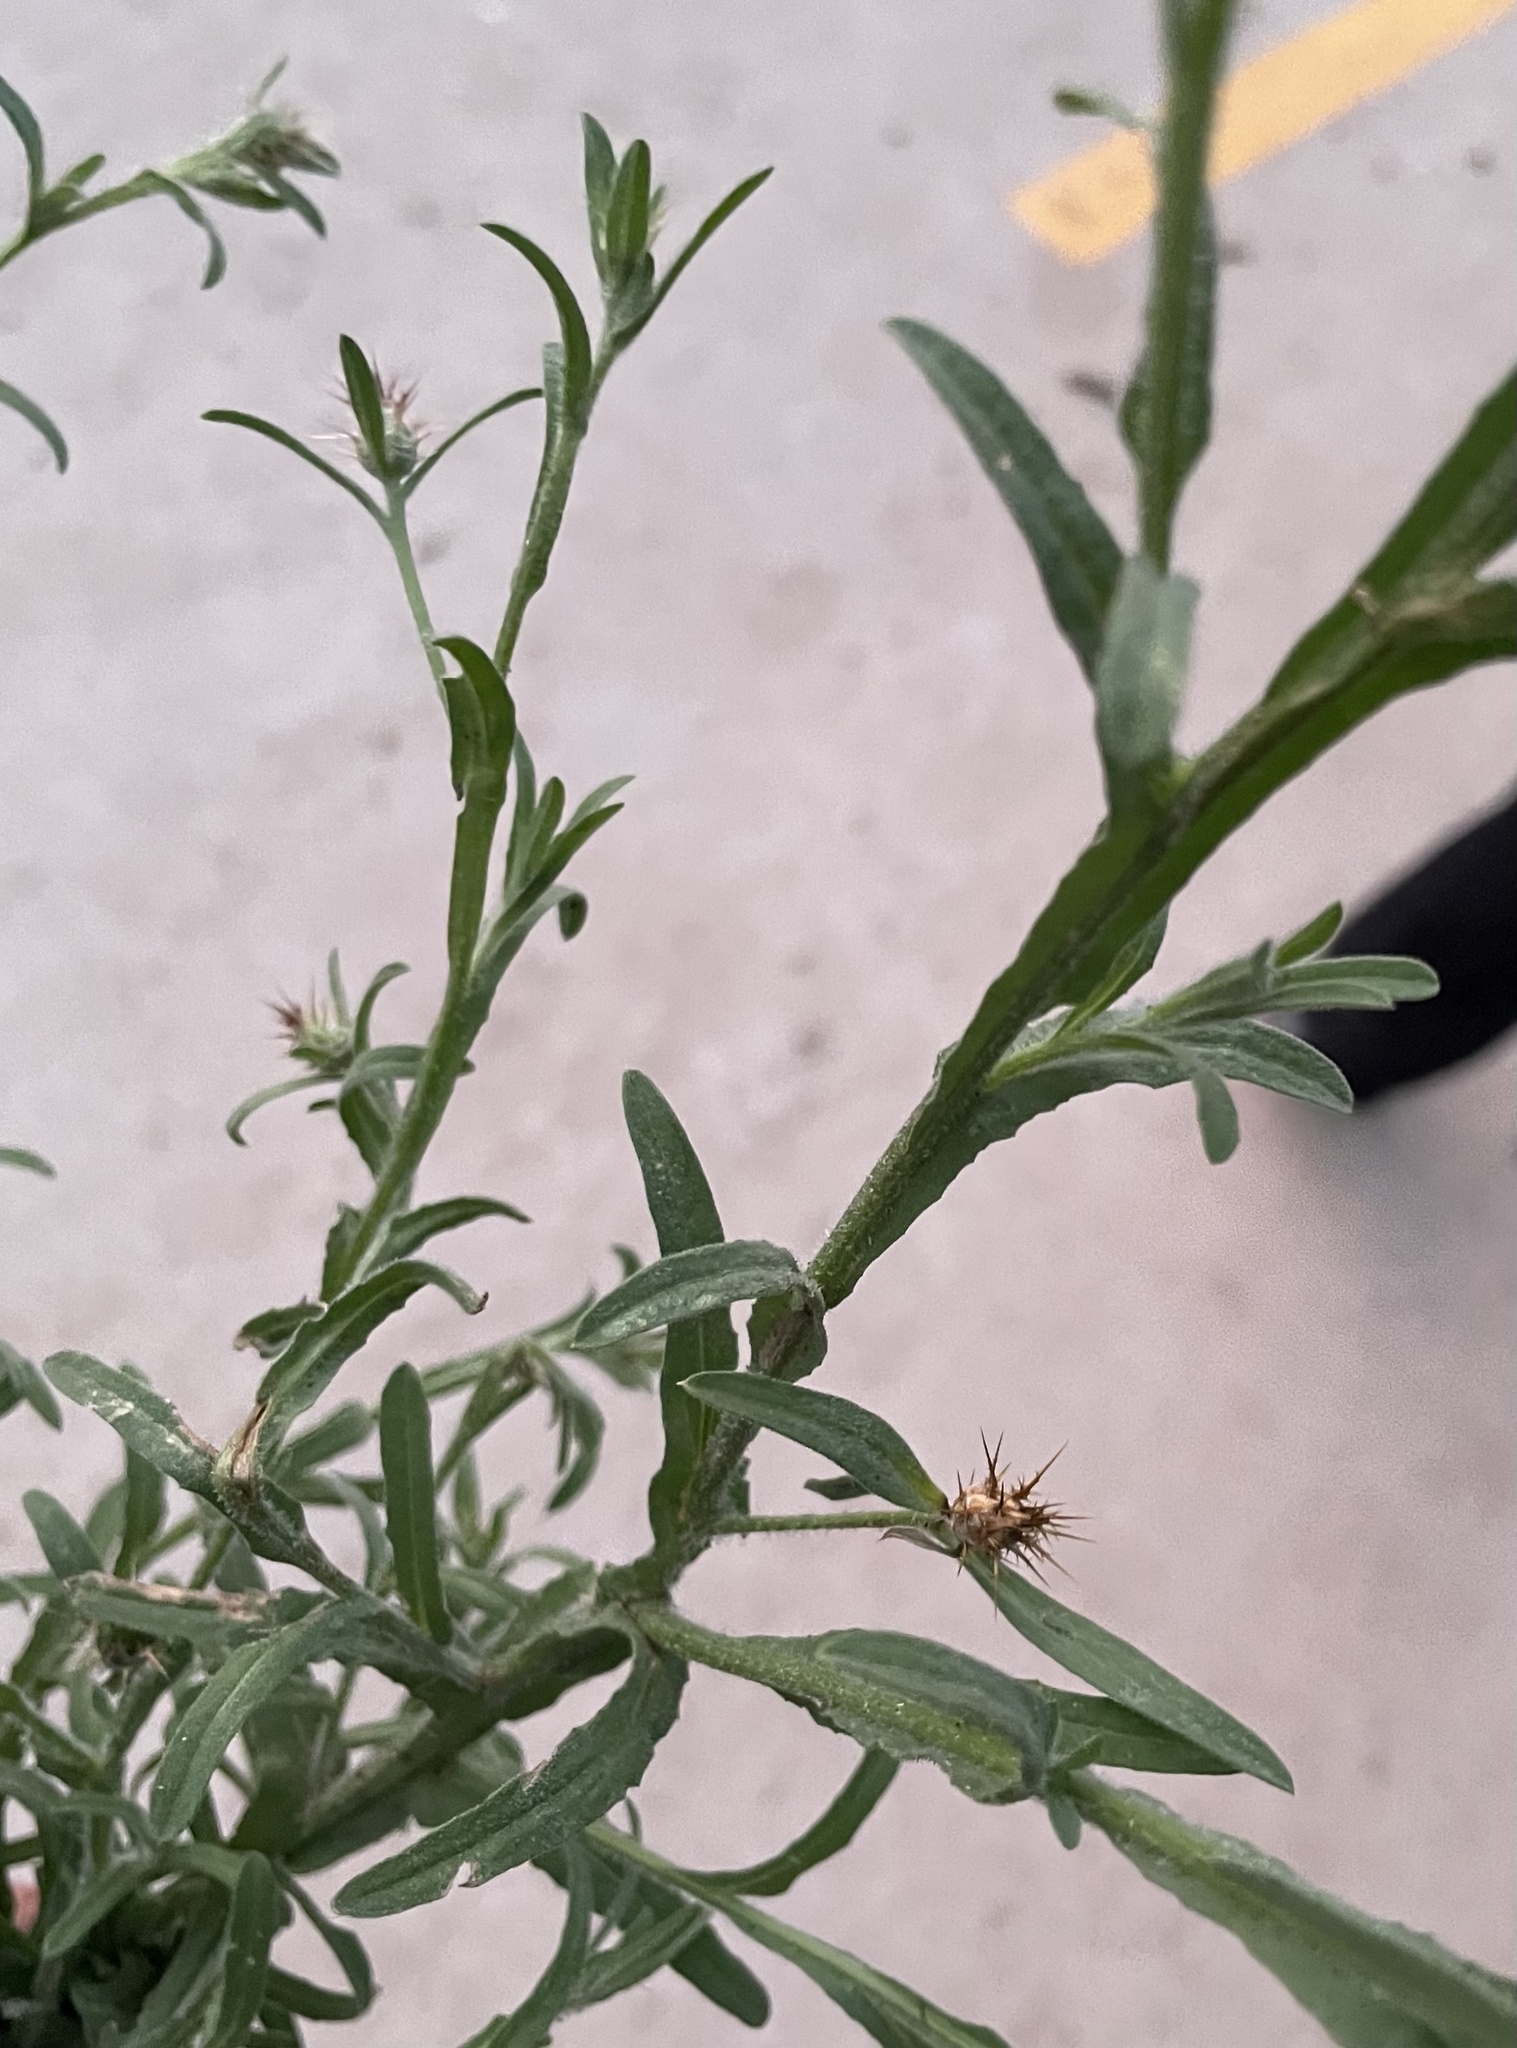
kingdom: Plantae
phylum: Tracheophyta
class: Magnoliopsida
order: Asterales
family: Asteraceae
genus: Centaurea
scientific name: Centaurea melitensis
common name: Maltese star-thistle
